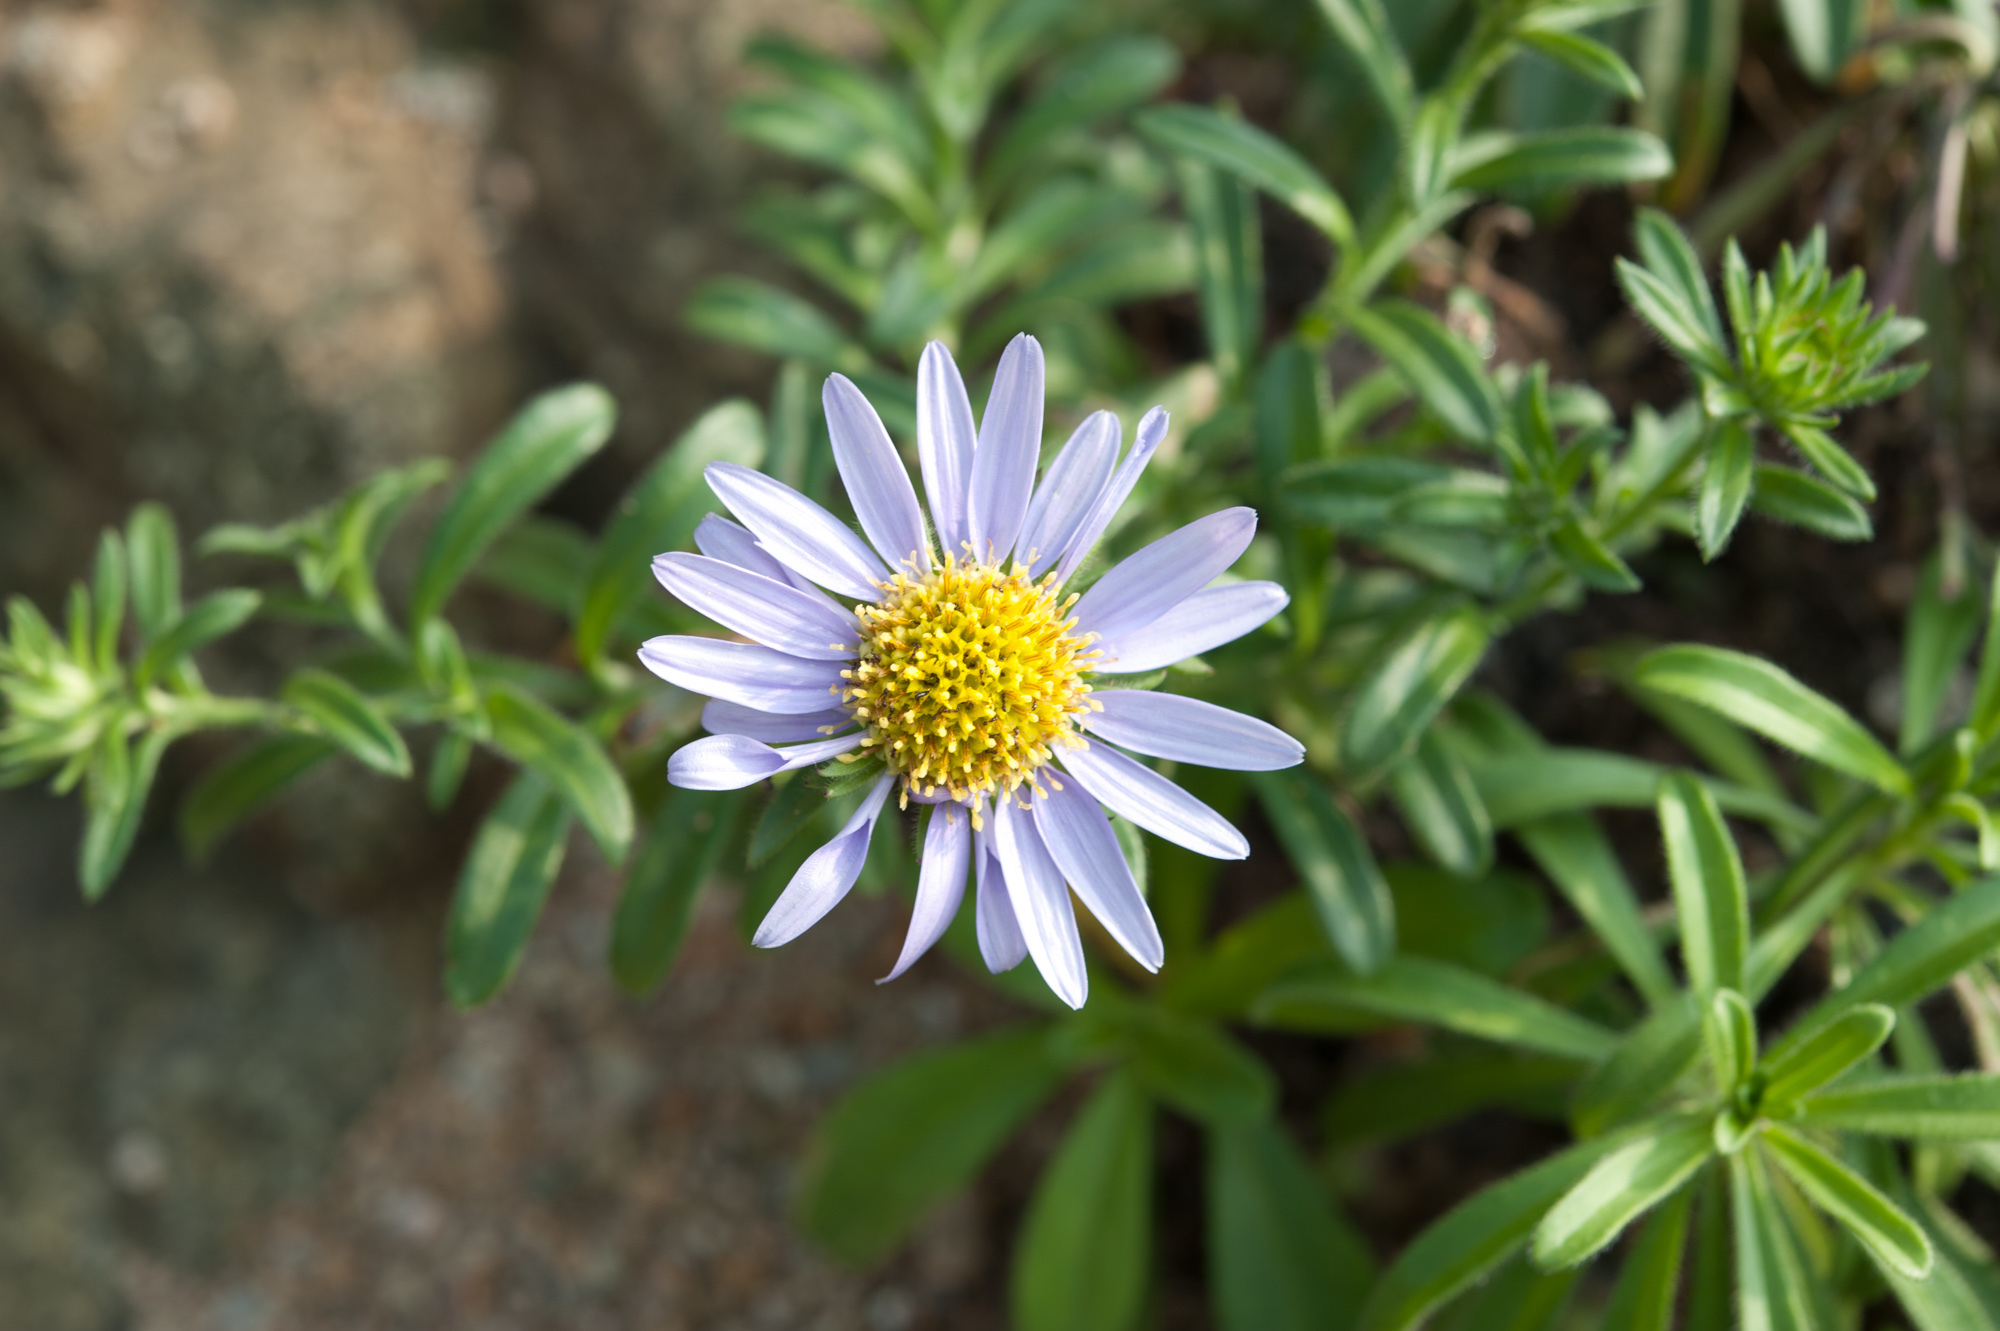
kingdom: Plantae
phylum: Tracheophyta
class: Magnoliopsida
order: Asterales
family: Asteraceae
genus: Heteropappus
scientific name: Heteropappus ciliosus
